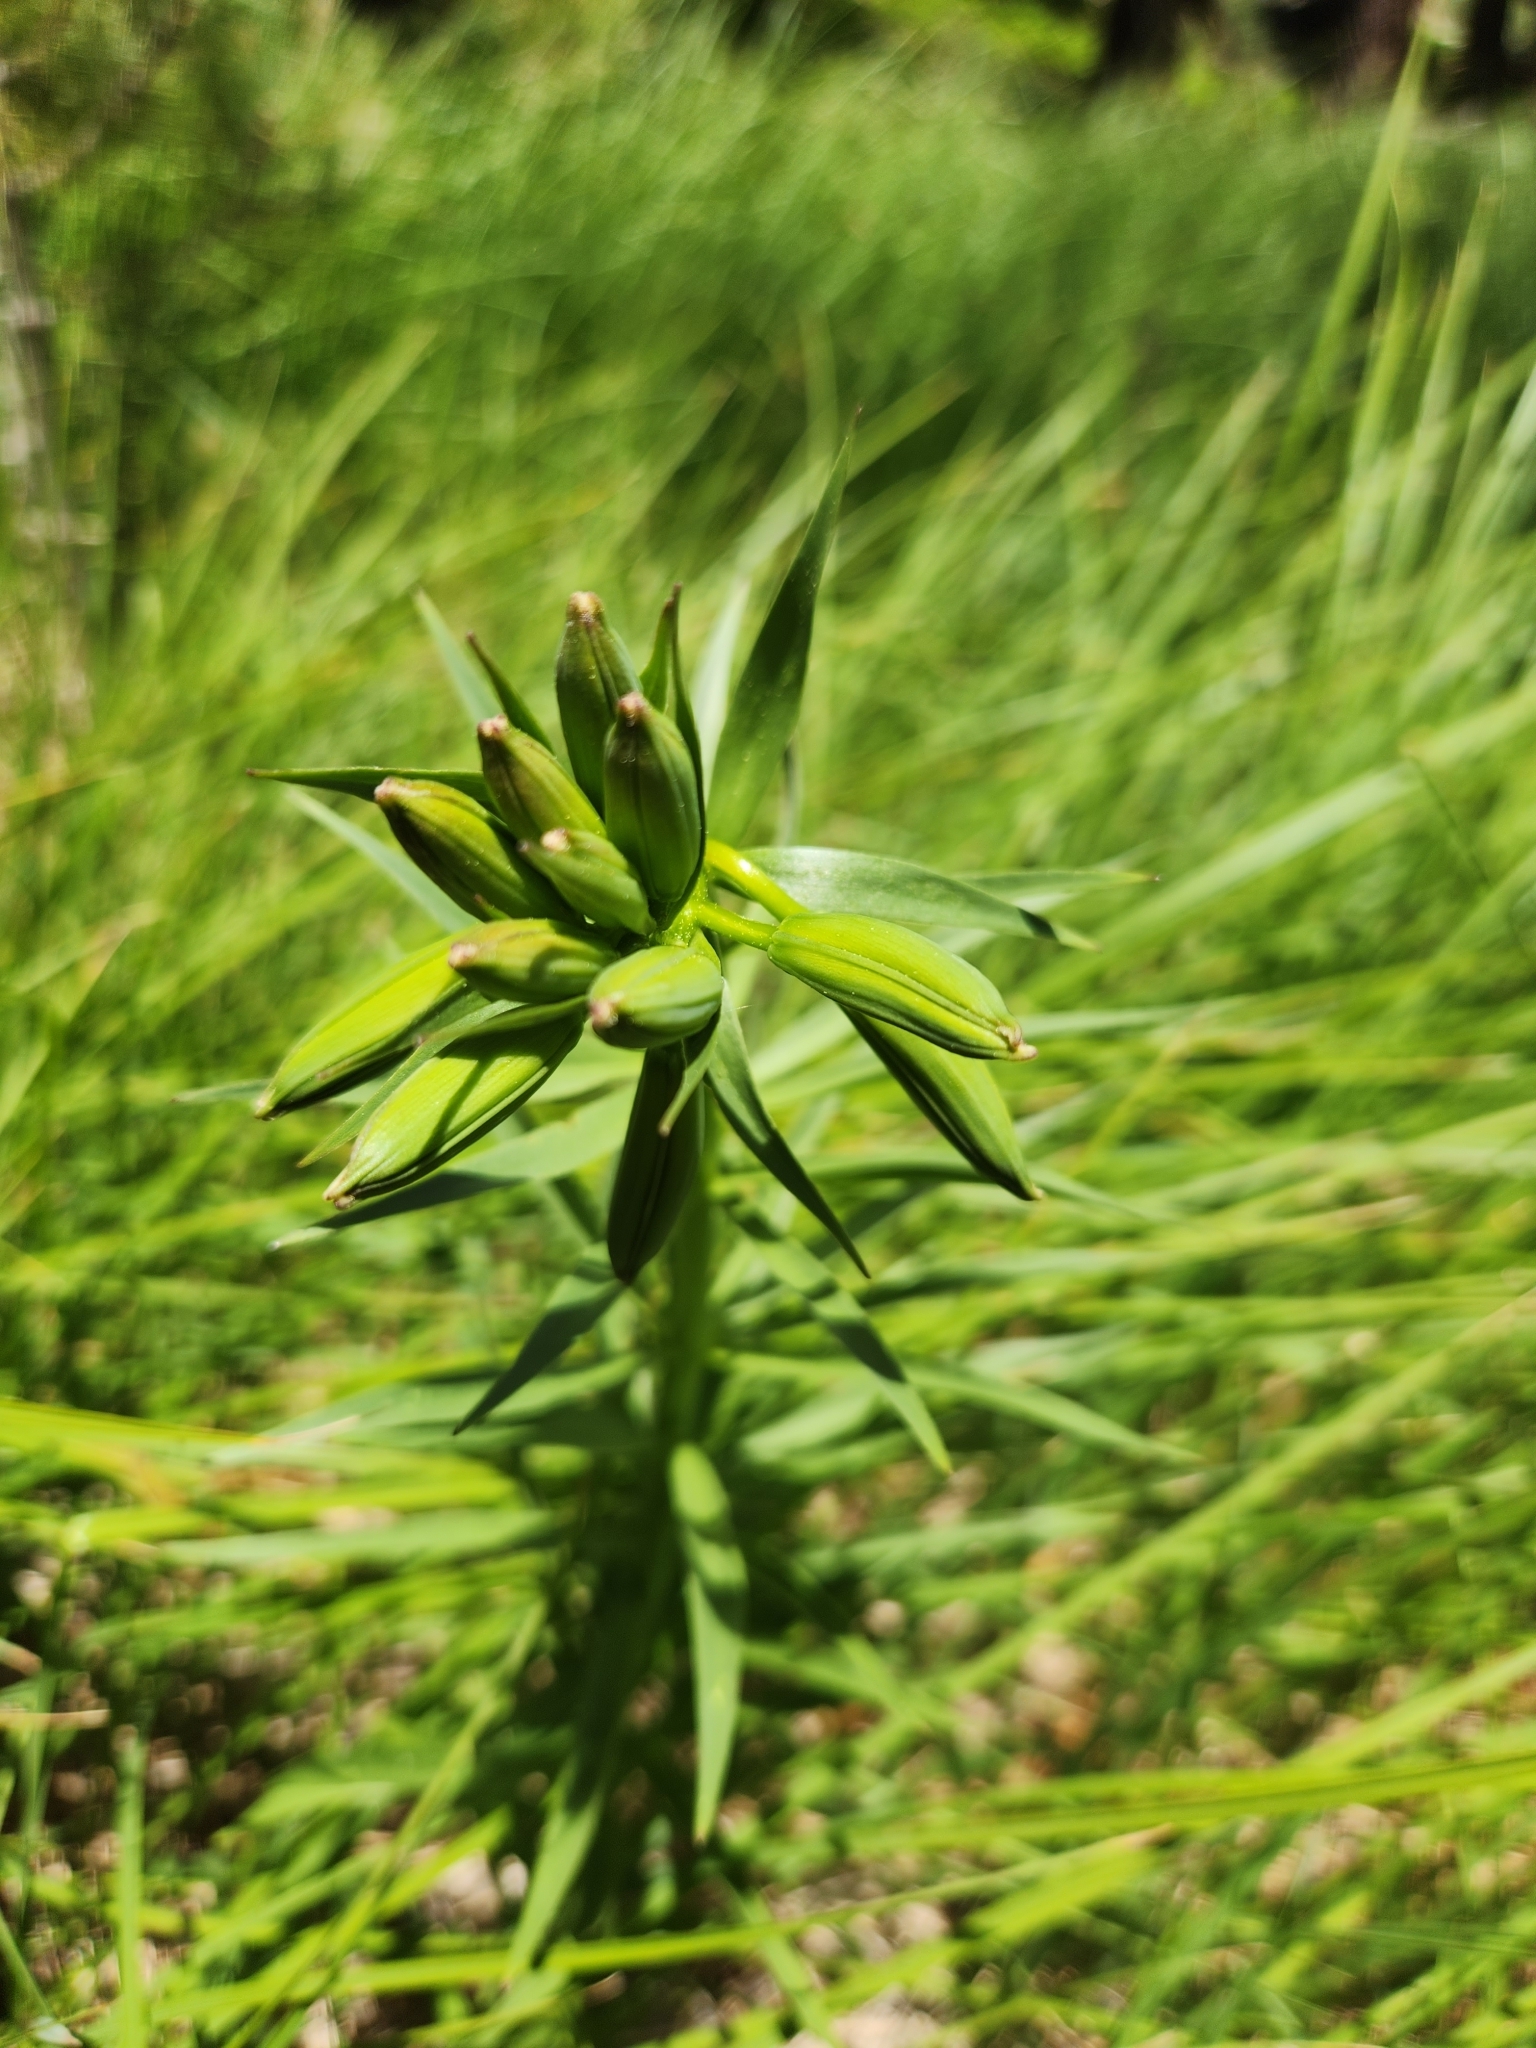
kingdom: Plantae
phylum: Tracheophyta
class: Liliopsida
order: Liliales
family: Liliaceae
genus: Lilium
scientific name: Lilium parryi
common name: Lemon lily
